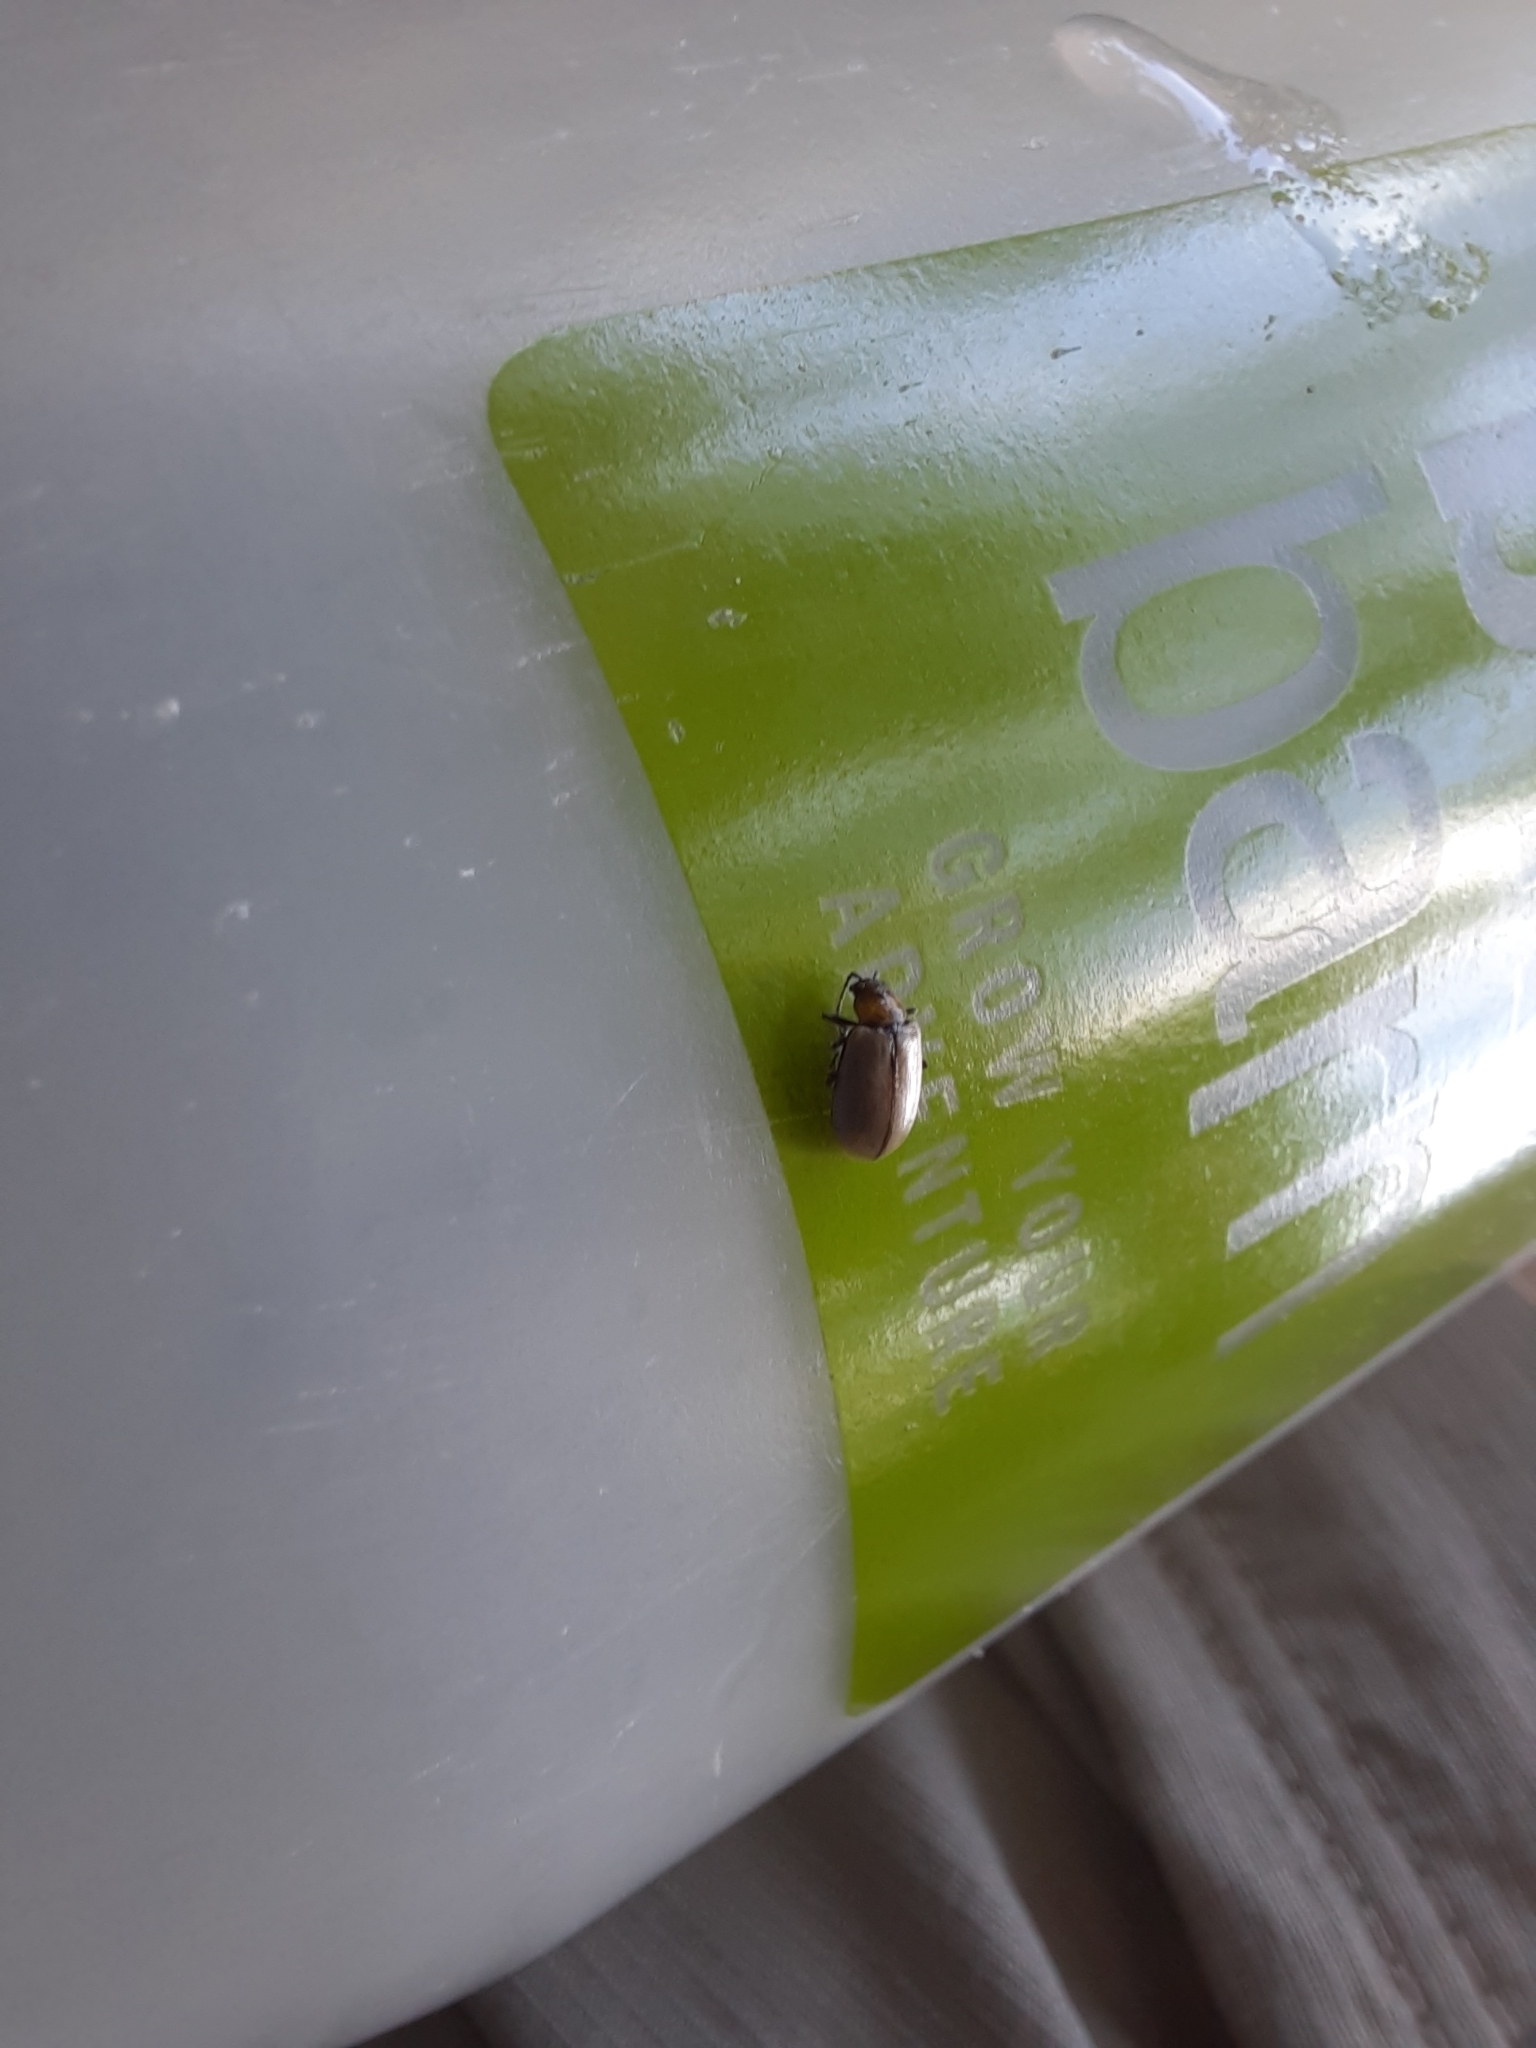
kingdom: Animalia
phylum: Arthropoda
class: Insecta
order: Coleoptera
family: Chrysomelidae
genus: Lochmaea
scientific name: Lochmaea suturalis
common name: Heather beetle
